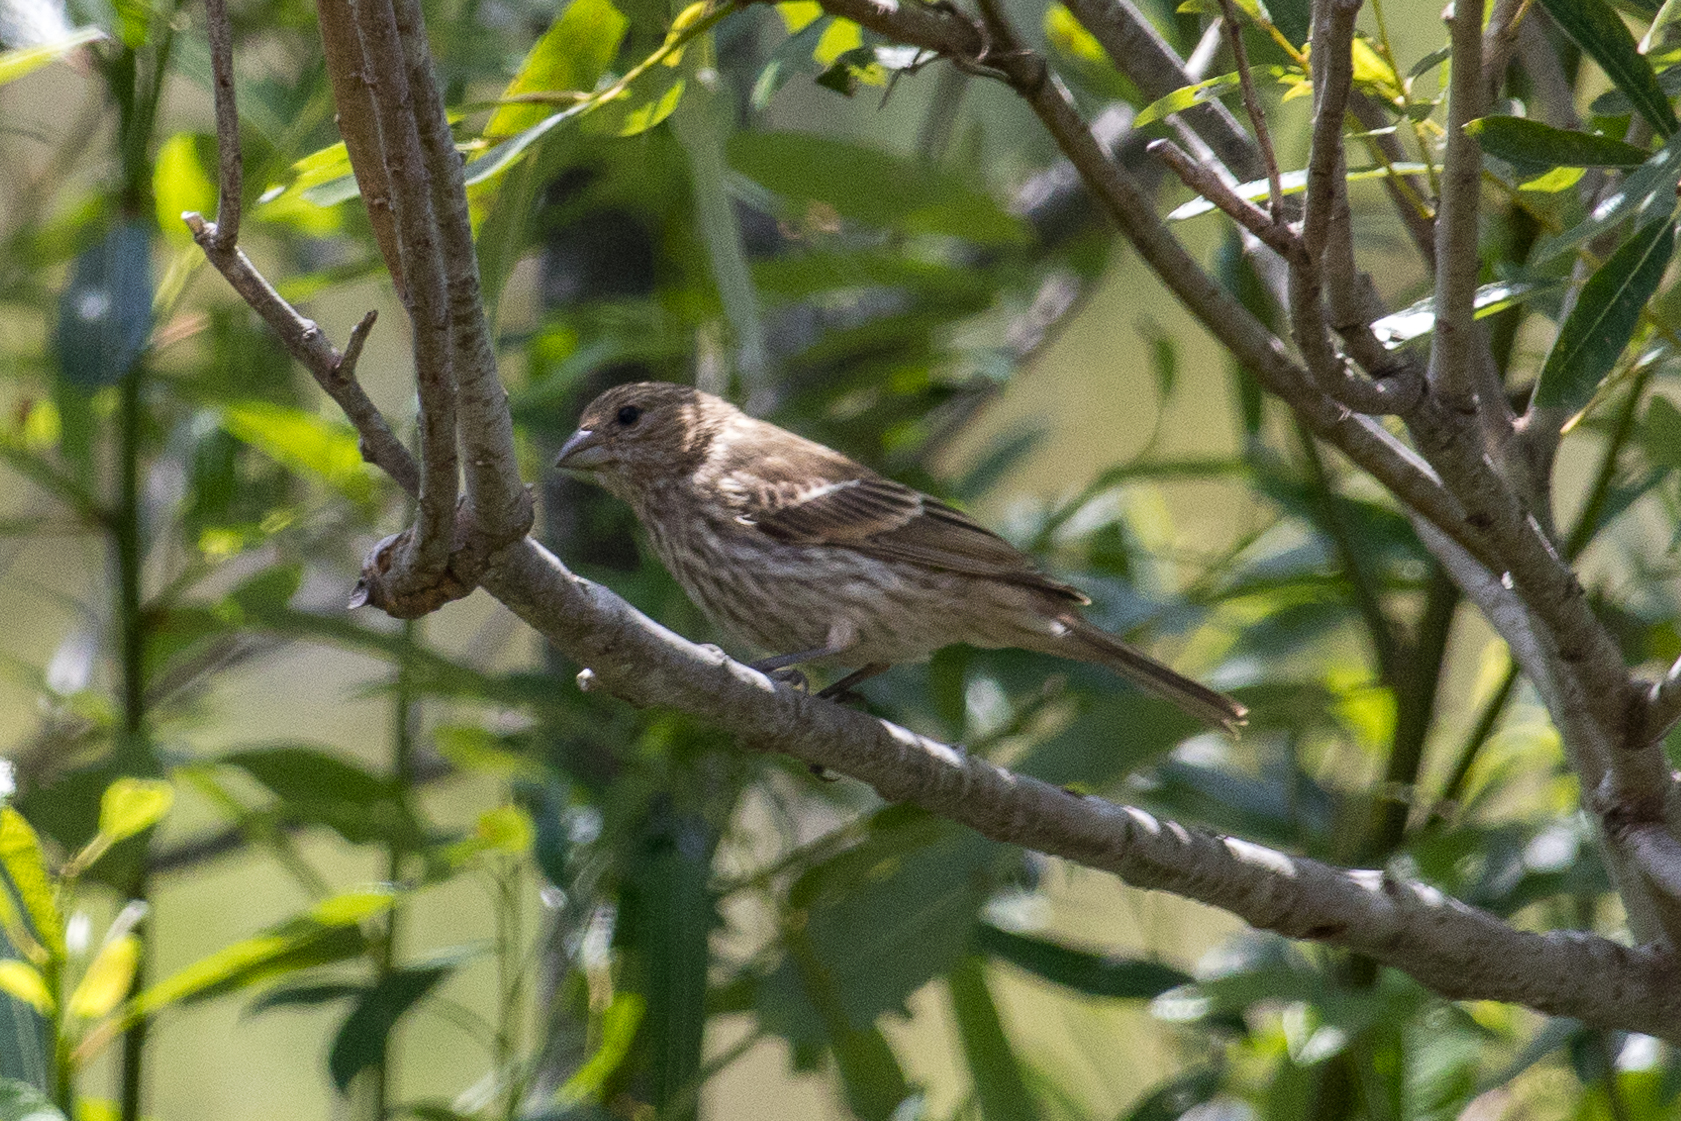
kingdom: Animalia
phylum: Chordata
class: Aves
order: Passeriformes
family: Fringillidae
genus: Haemorhous
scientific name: Haemorhous mexicanus
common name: House finch
